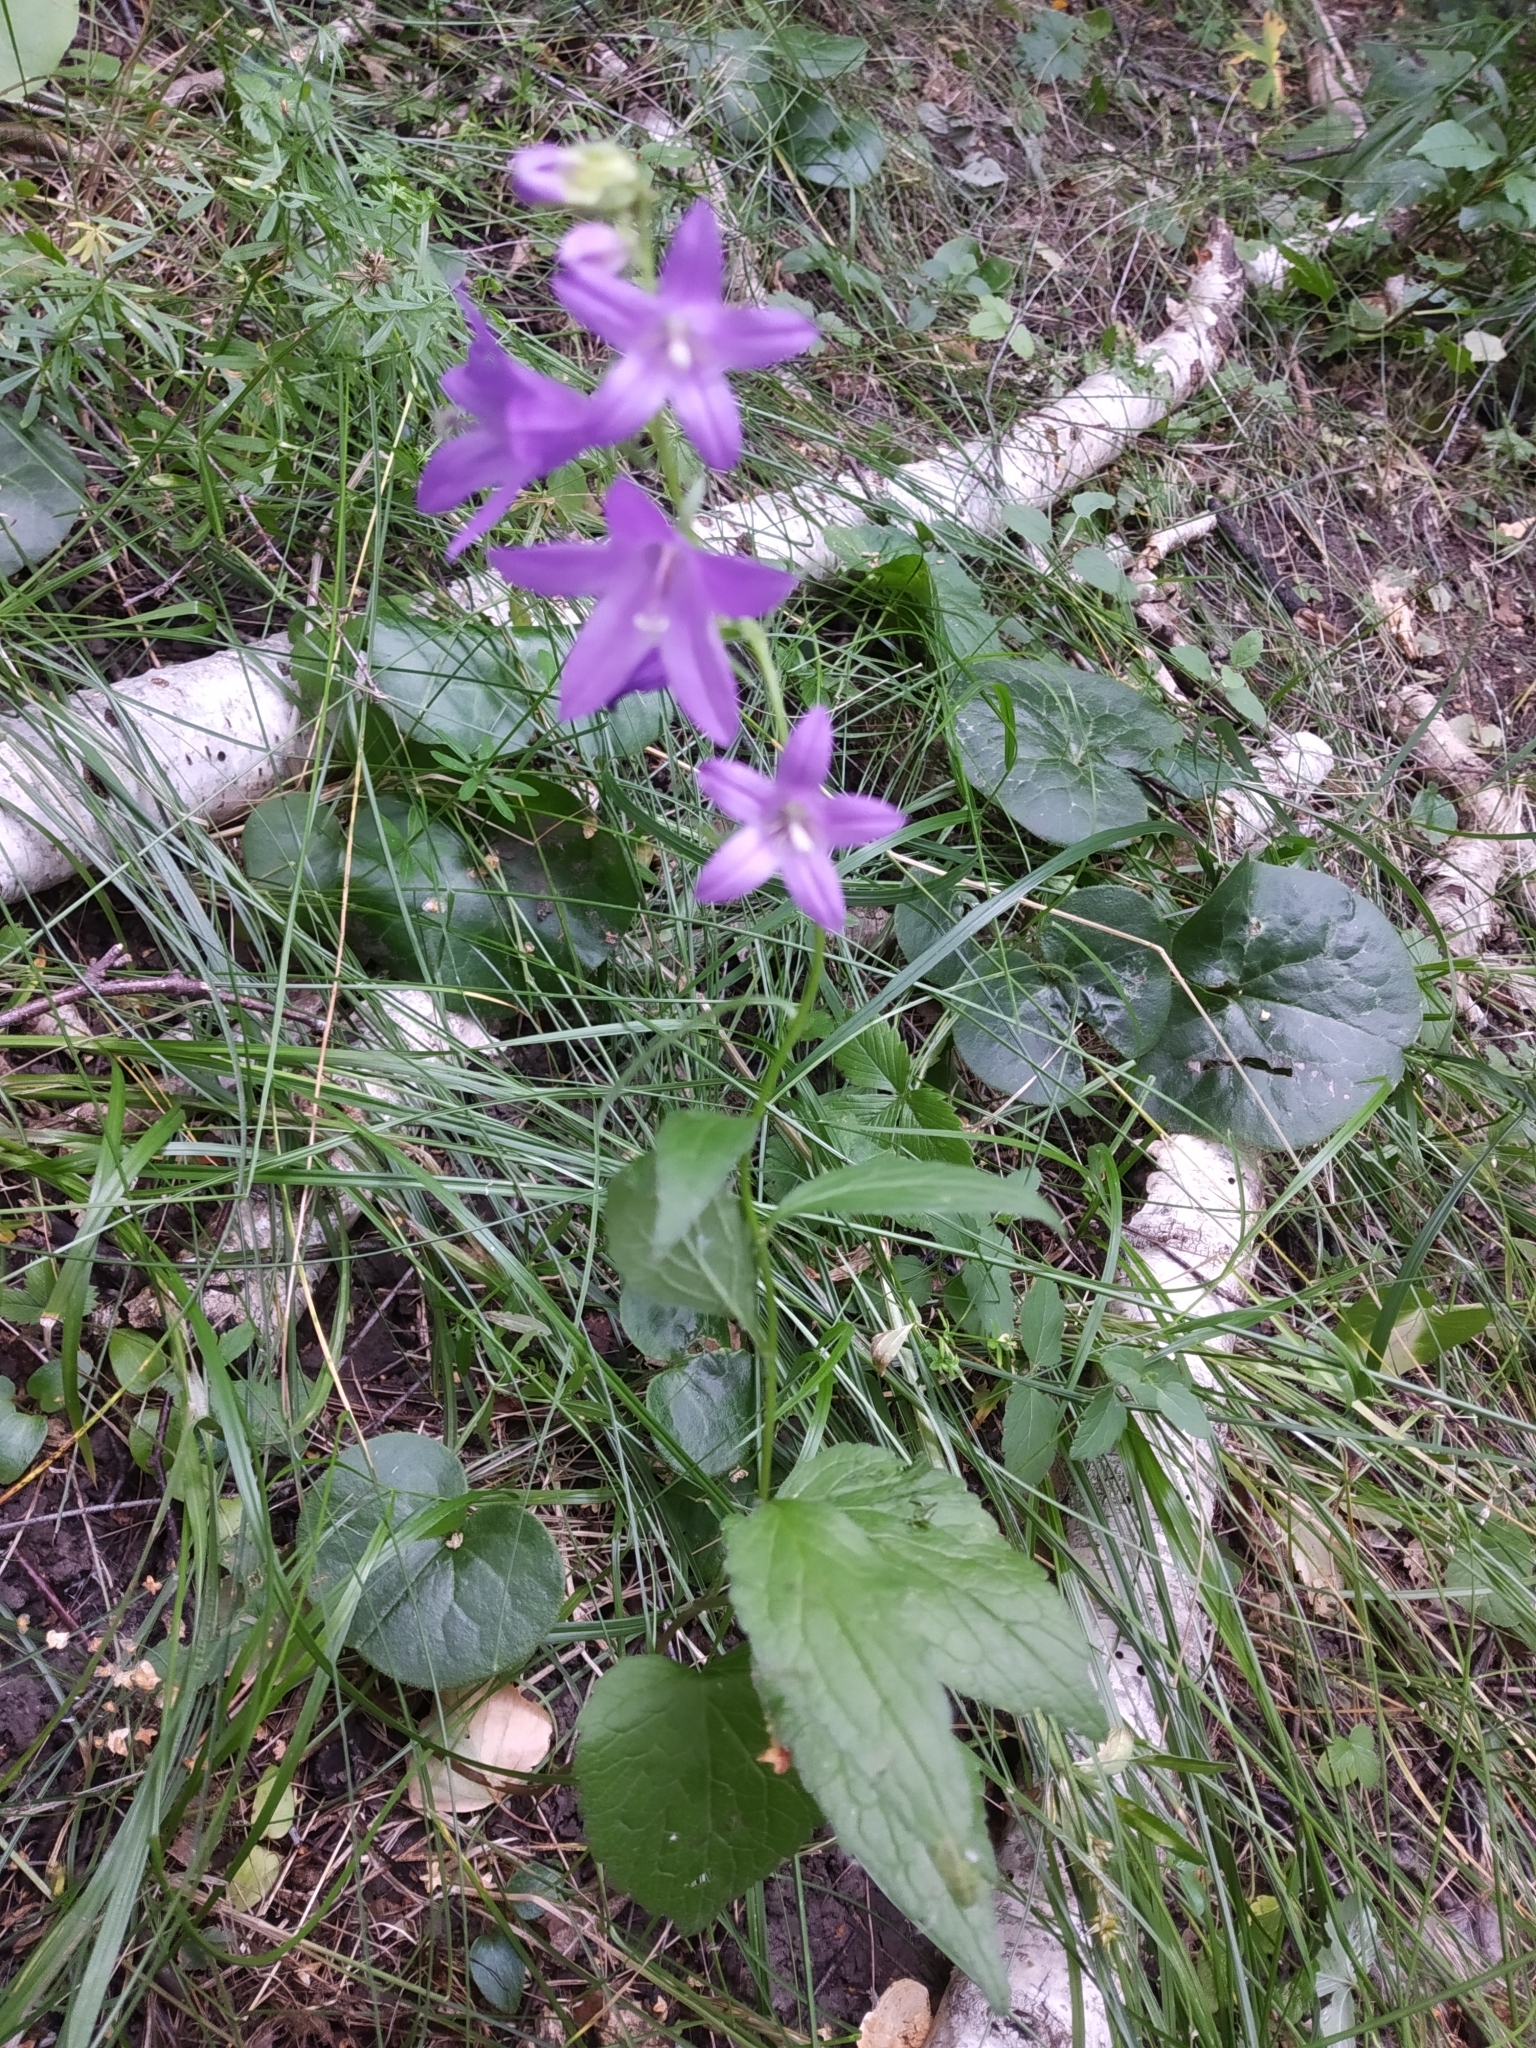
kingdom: Plantae
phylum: Tracheophyta
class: Magnoliopsida
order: Asterales
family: Campanulaceae
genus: Campanula
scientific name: Campanula rapunculoides
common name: Creeping bellflower
